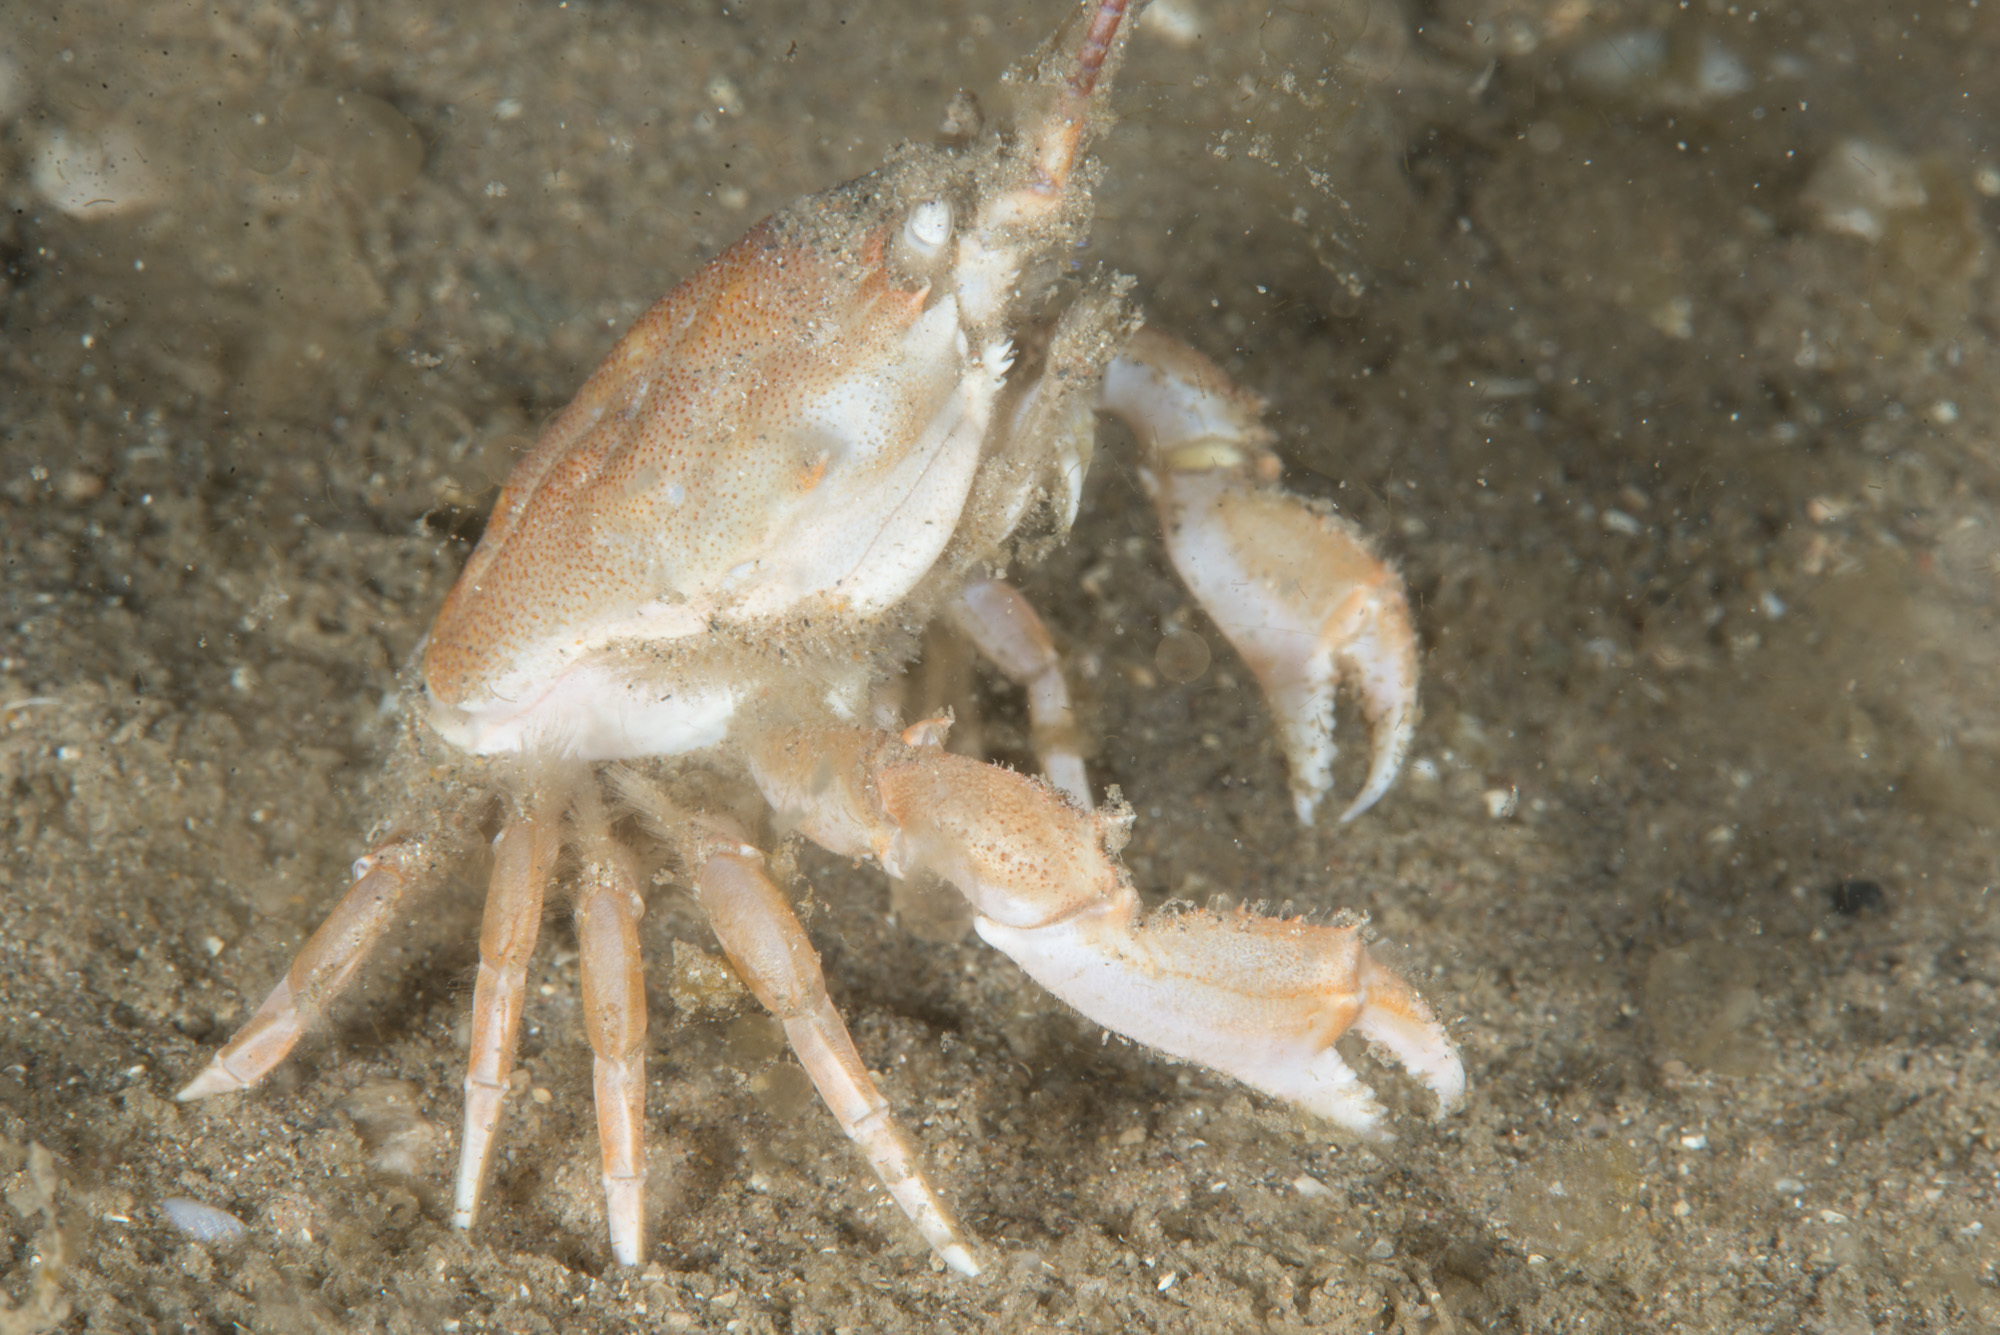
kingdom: Animalia
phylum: Arthropoda
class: Malacostraca
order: Decapoda
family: Corystidae
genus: Corystes
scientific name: Corystes cassivelaunus
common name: Masked crab
